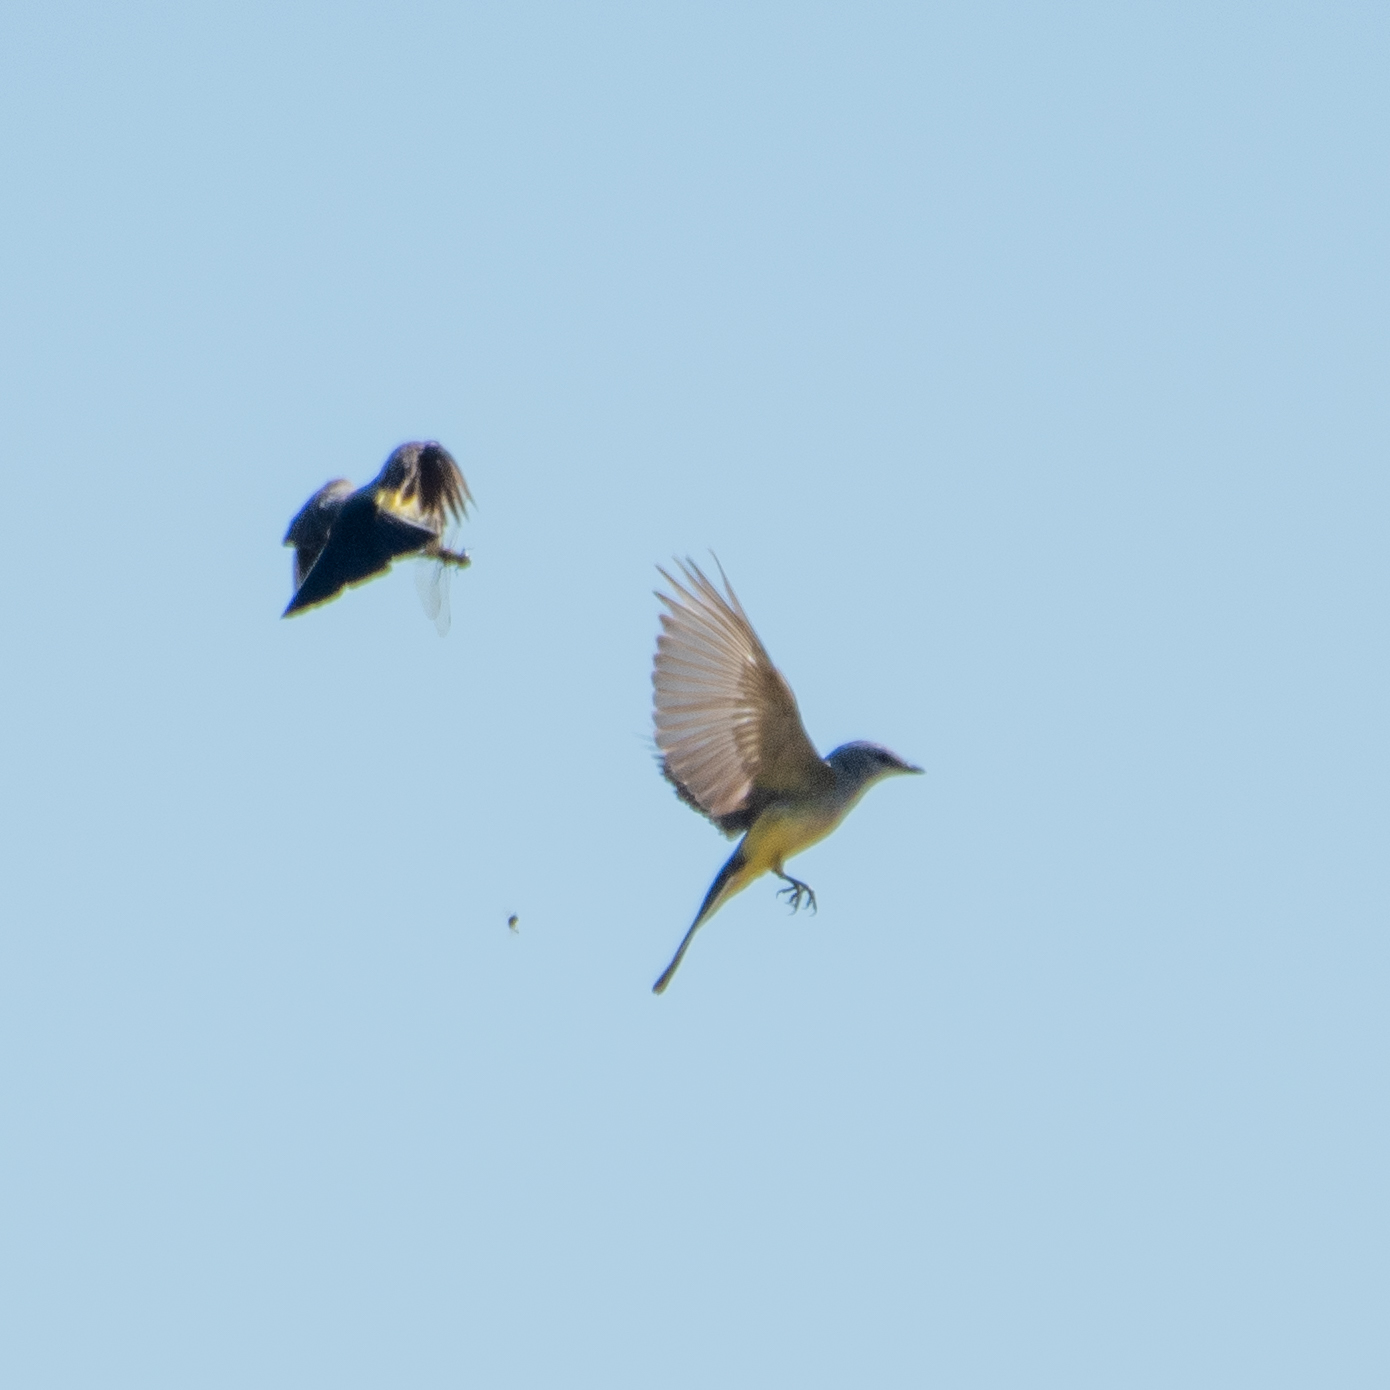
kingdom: Animalia
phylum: Chordata
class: Aves
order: Passeriformes
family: Tyrannidae
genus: Tyrannus
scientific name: Tyrannus verticalis
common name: Western kingbird
